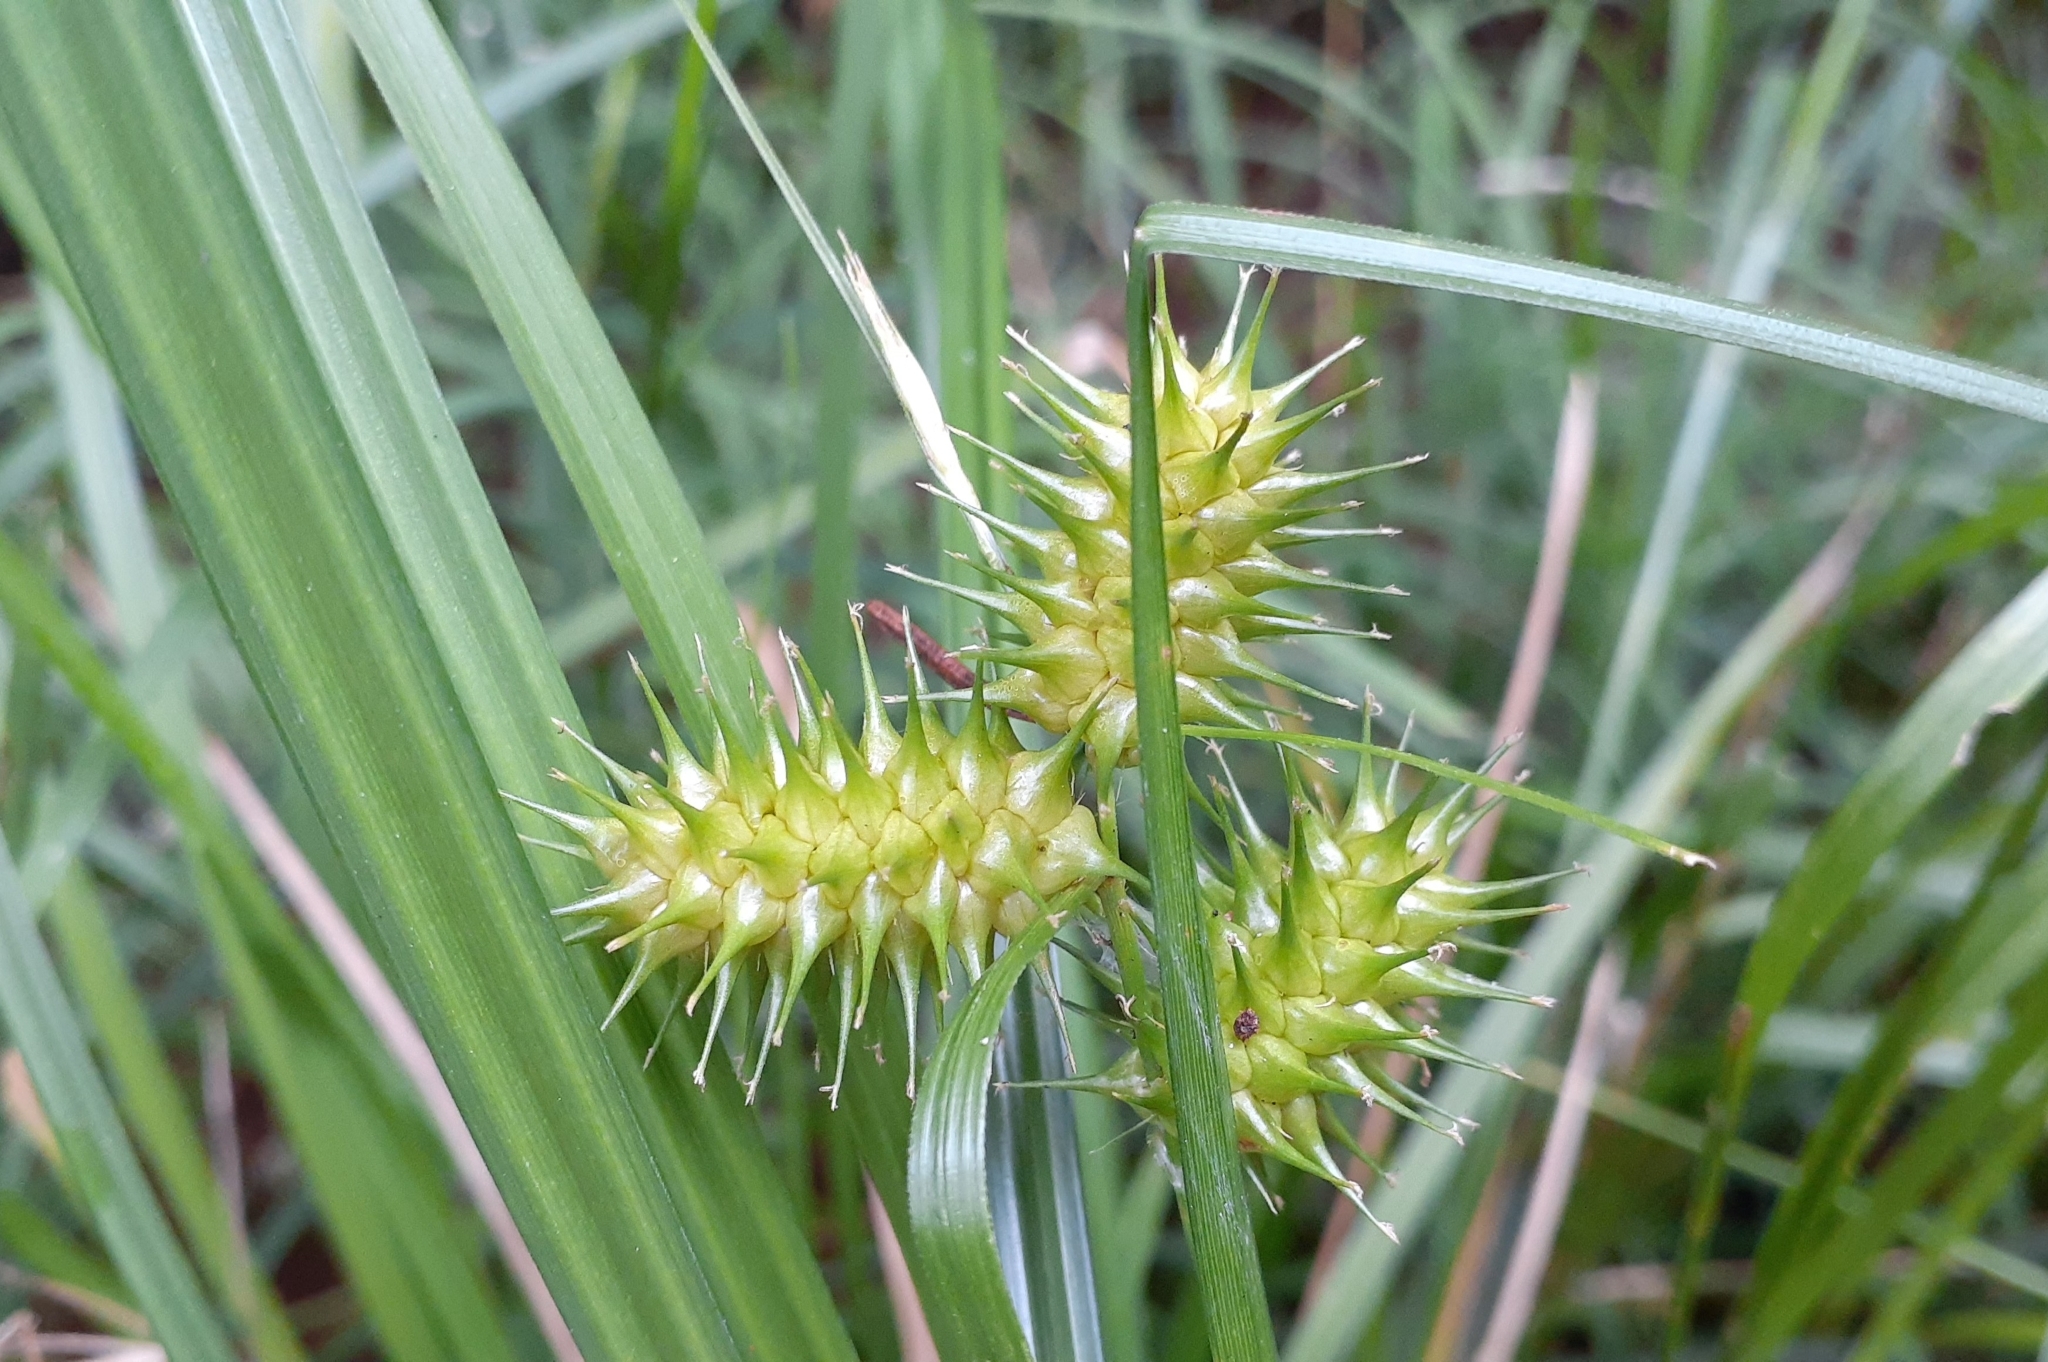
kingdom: Plantae
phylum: Tracheophyta
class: Liliopsida
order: Poales
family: Cyperaceae
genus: Carex
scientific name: Carex lurida
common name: Sallow sedge
